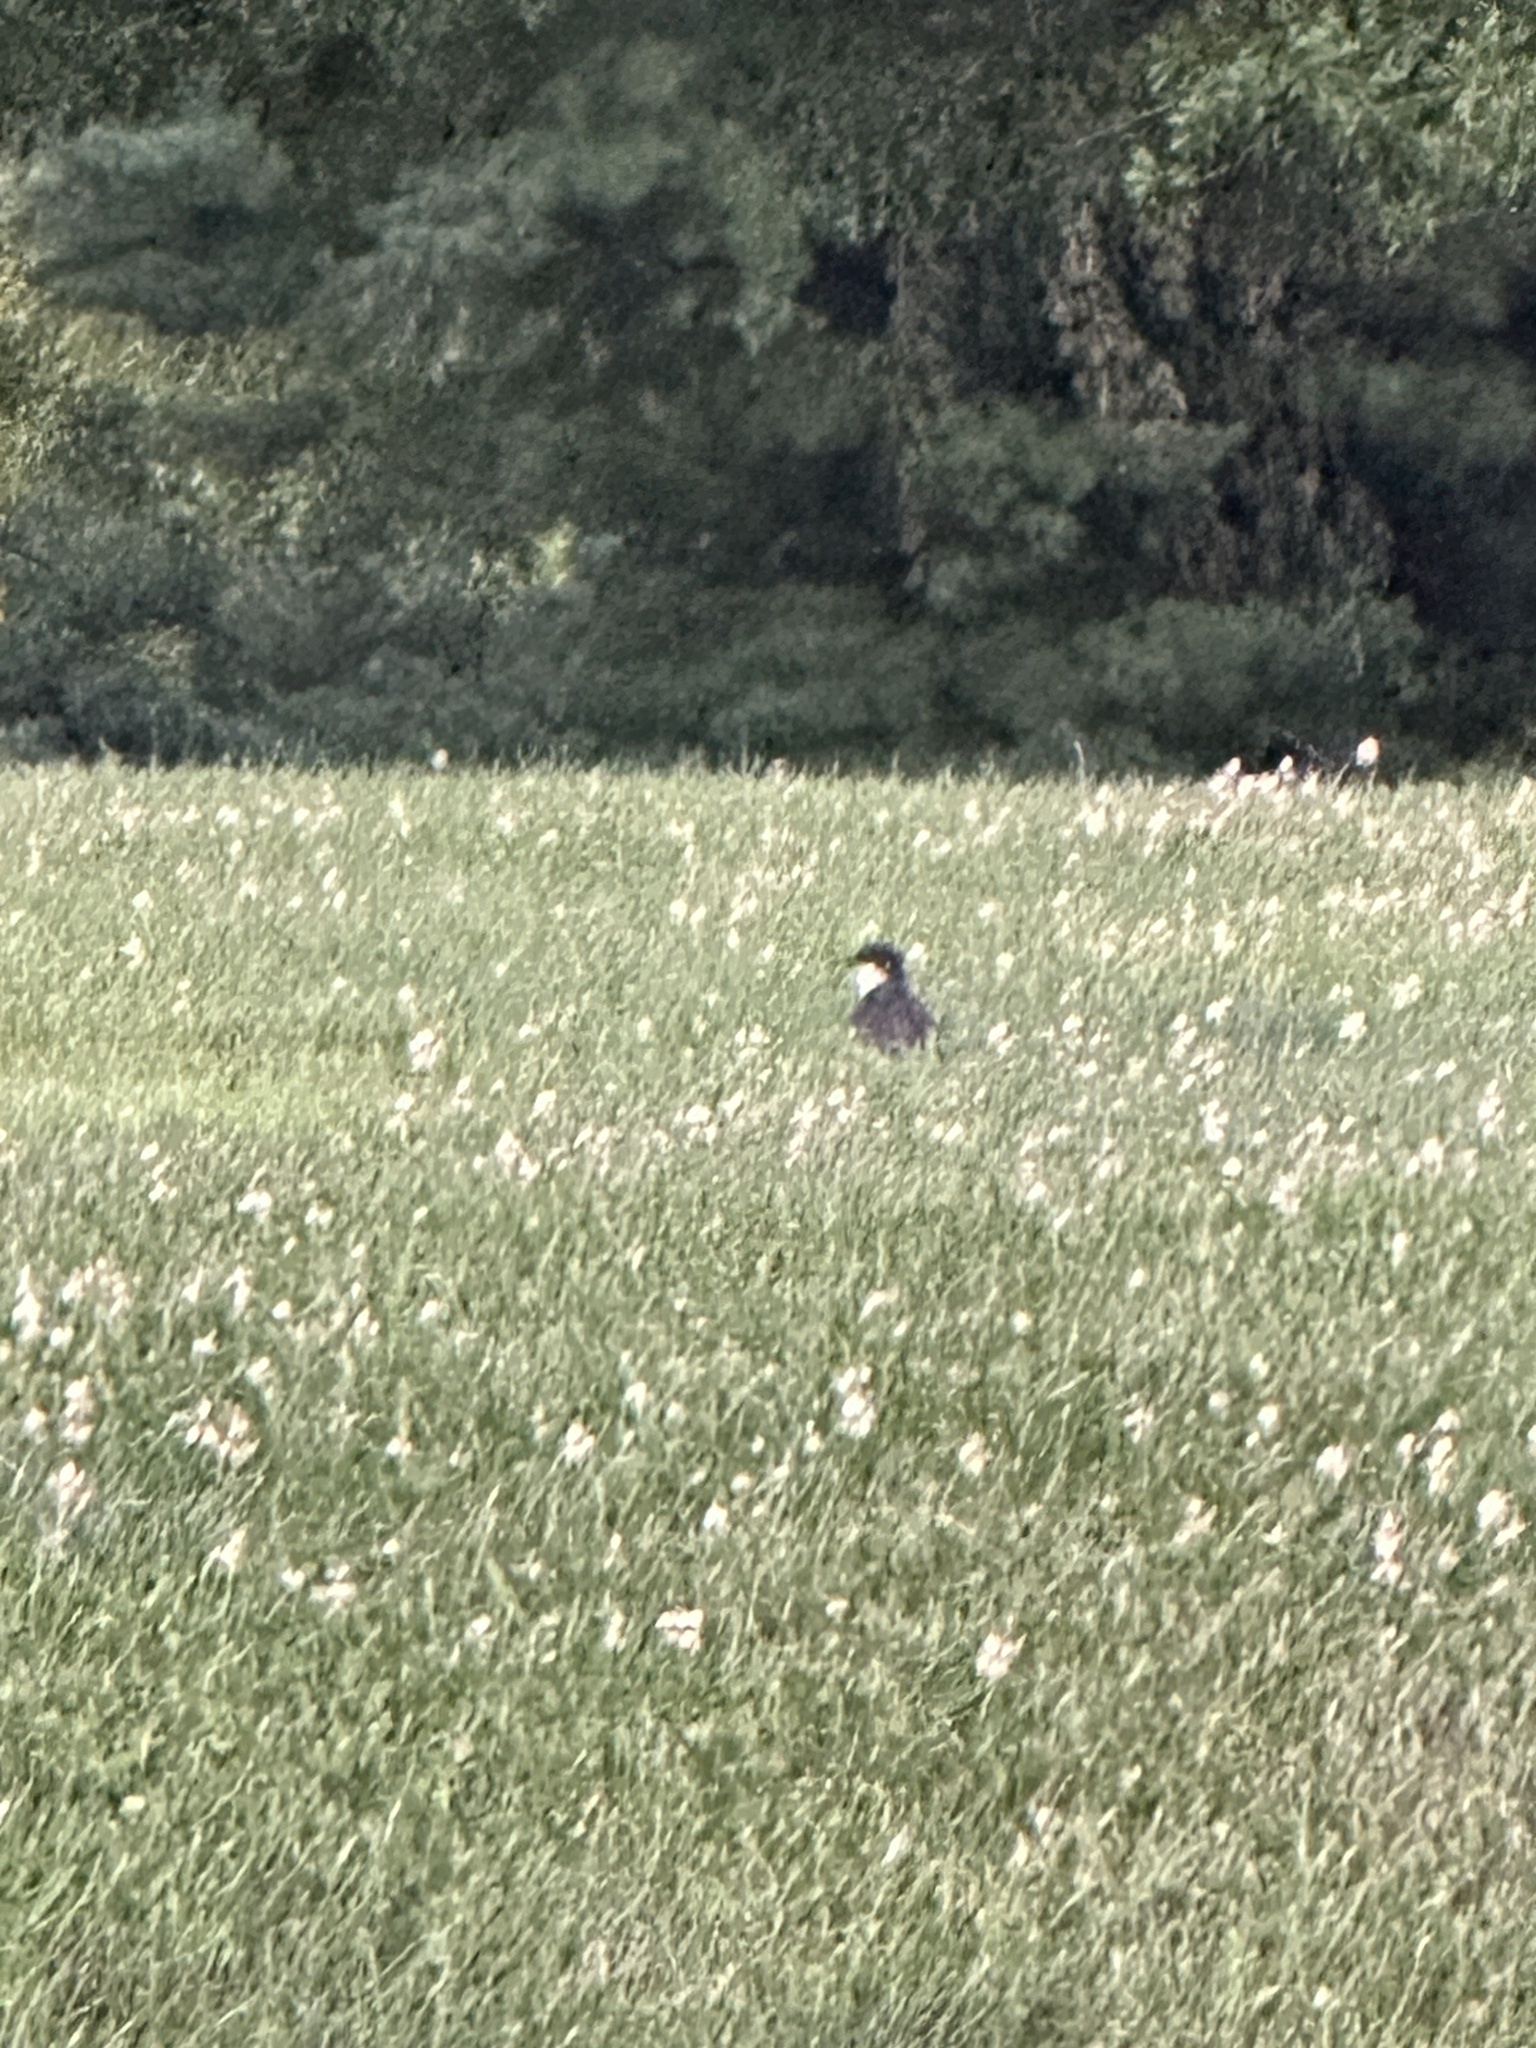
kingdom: Animalia
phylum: Chordata
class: Aves
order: Passeriformes
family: Tyrannidae
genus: Tyrannus
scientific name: Tyrannus tyrannus
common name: Eastern kingbird
